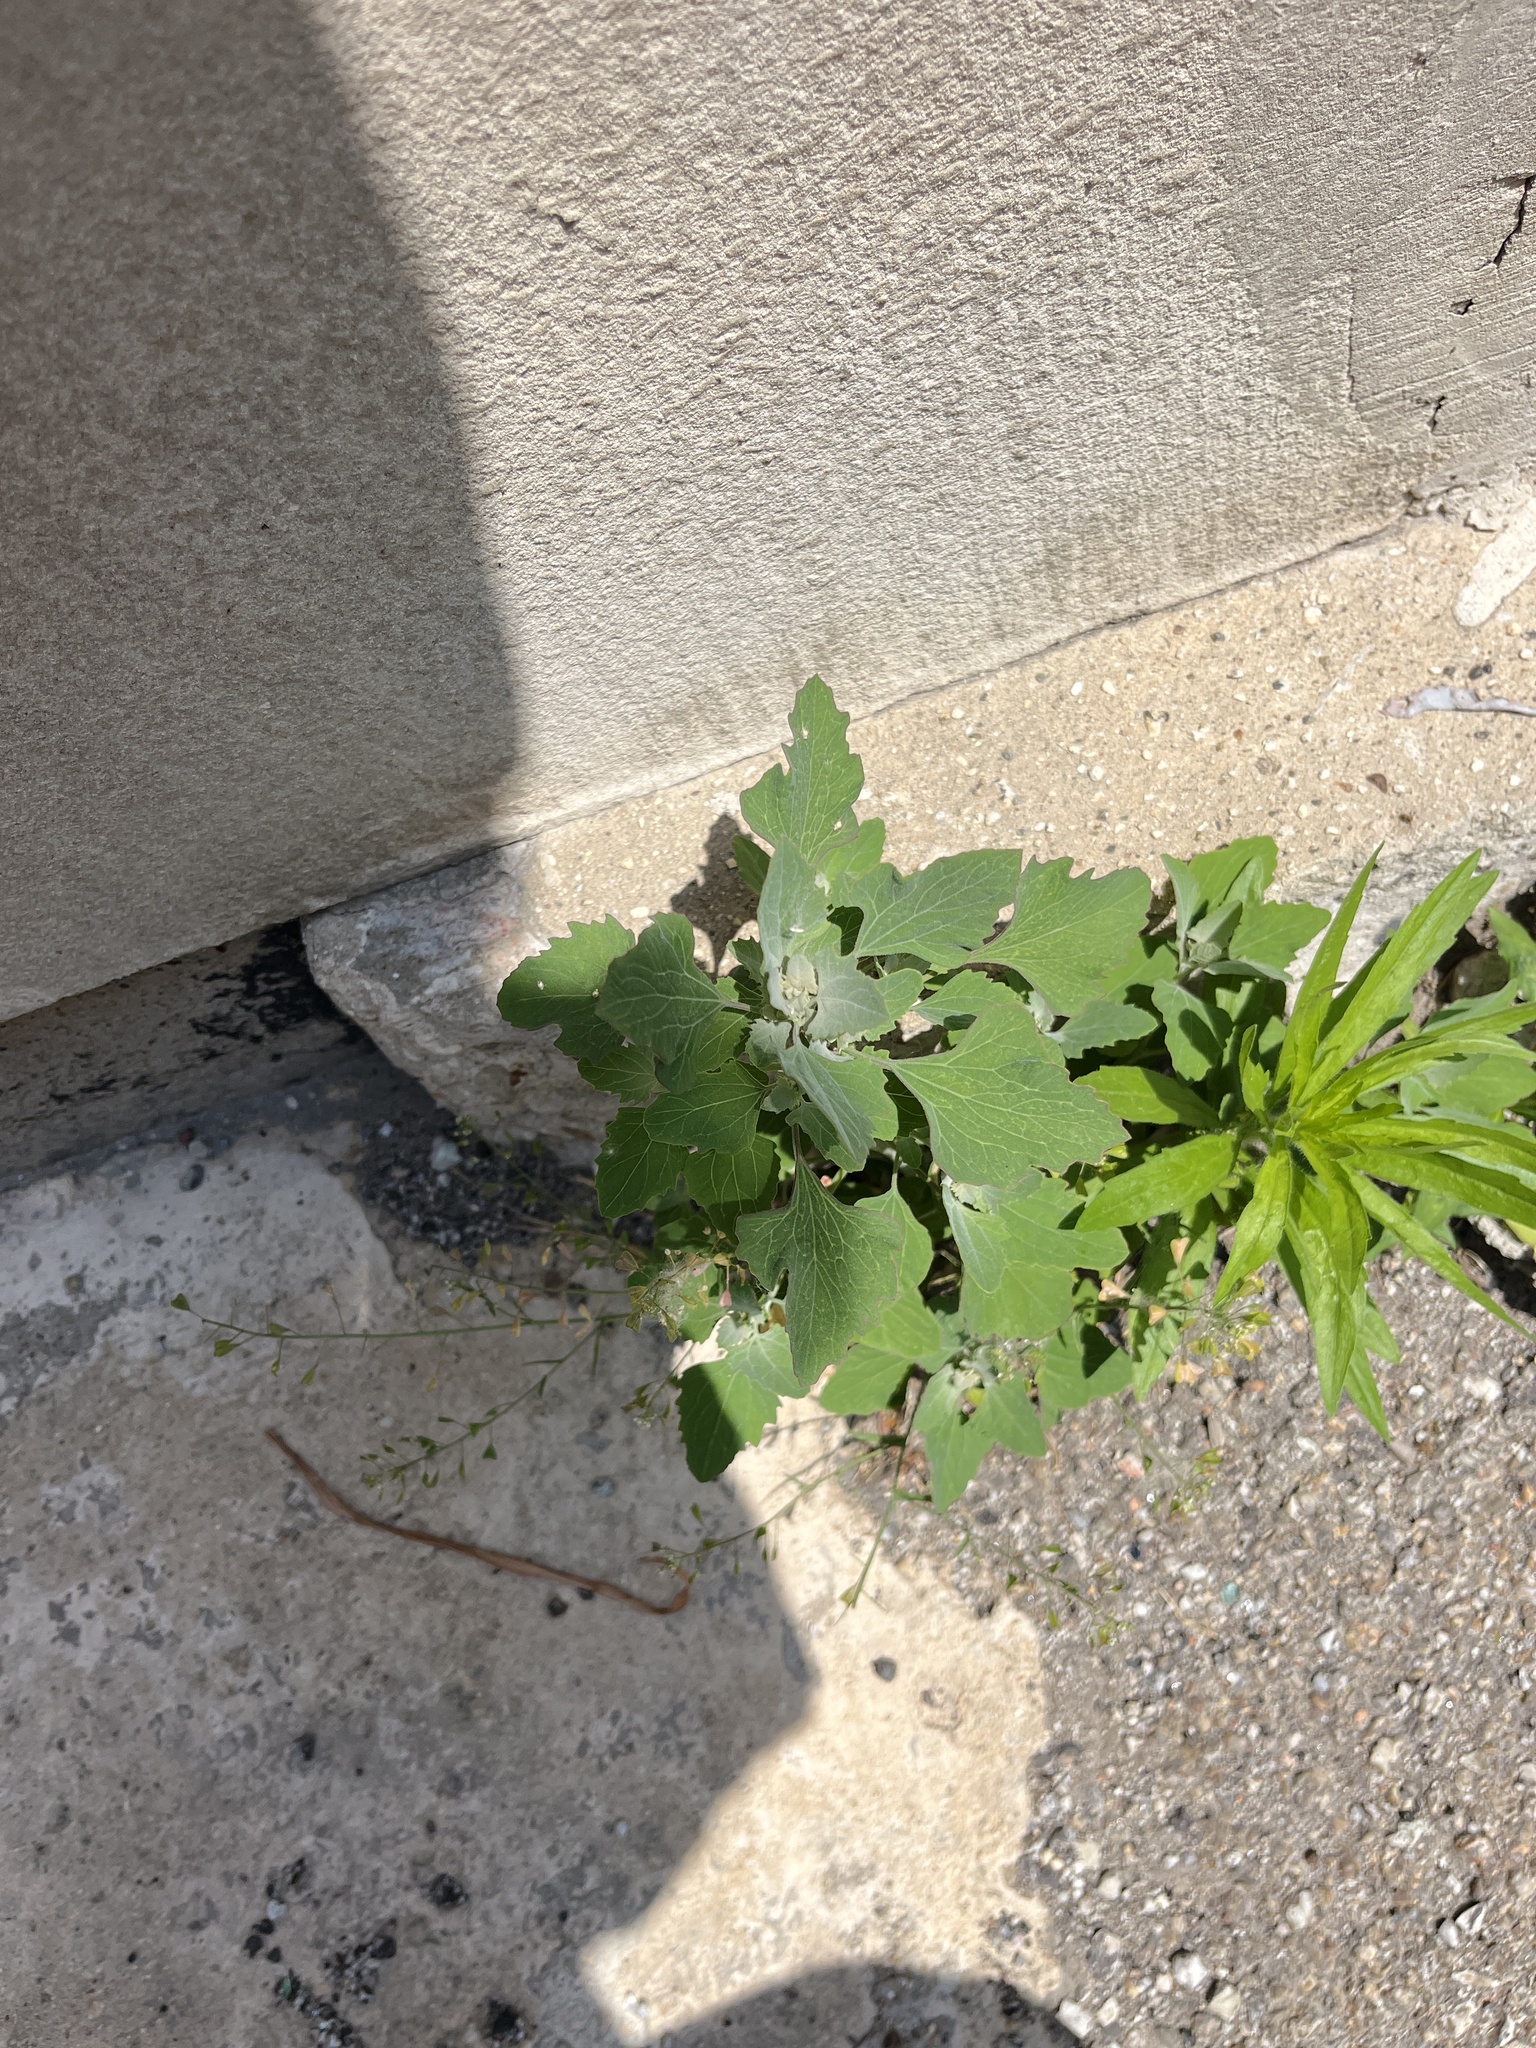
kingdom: Plantae
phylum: Tracheophyta
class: Magnoliopsida
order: Caryophyllales
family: Amaranthaceae
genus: Chenopodium
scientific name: Chenopodium album
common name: Fat-hen
